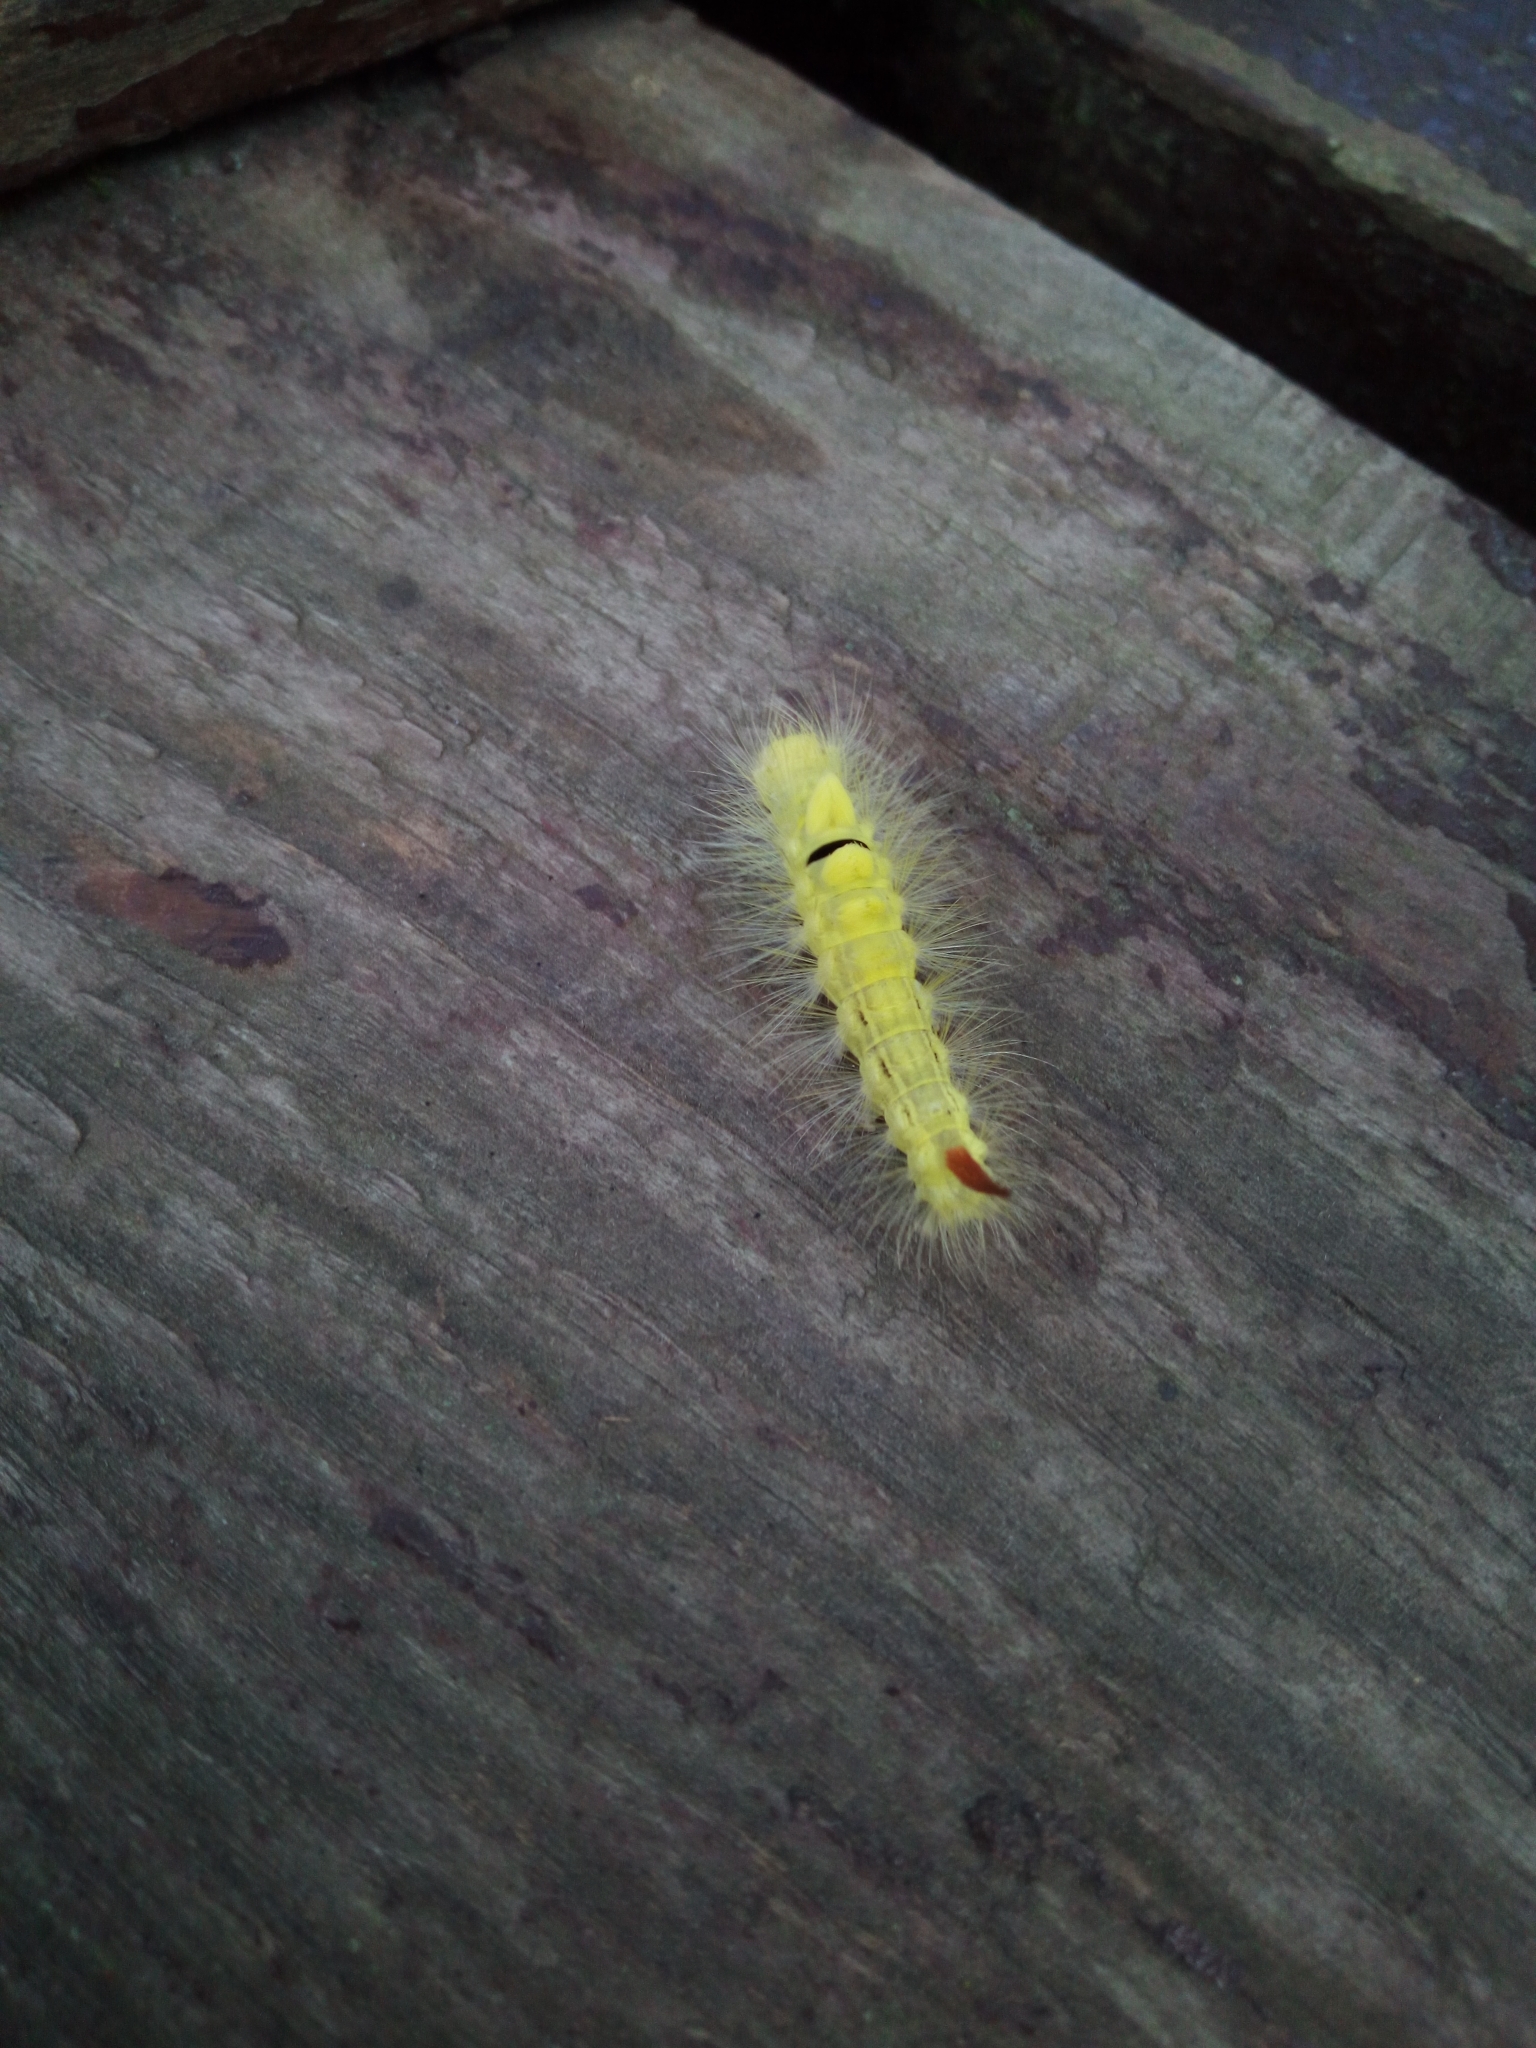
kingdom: Animalia
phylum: Arthropoda
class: Insecta
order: Lepidoptera
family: Erebidae
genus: Calliteara
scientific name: Calliteara pudibunda
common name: Pale tussock
